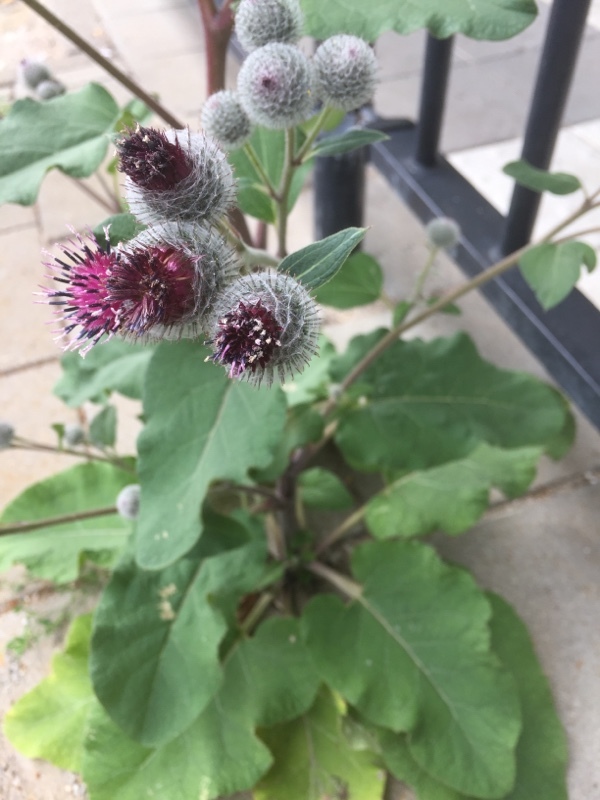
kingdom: Plantae
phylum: Tracheophyta
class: Magnoliopsida
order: Asterales
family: Asteraceae
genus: Arctium
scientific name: Arctium tomentosum
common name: Woolly burdock
